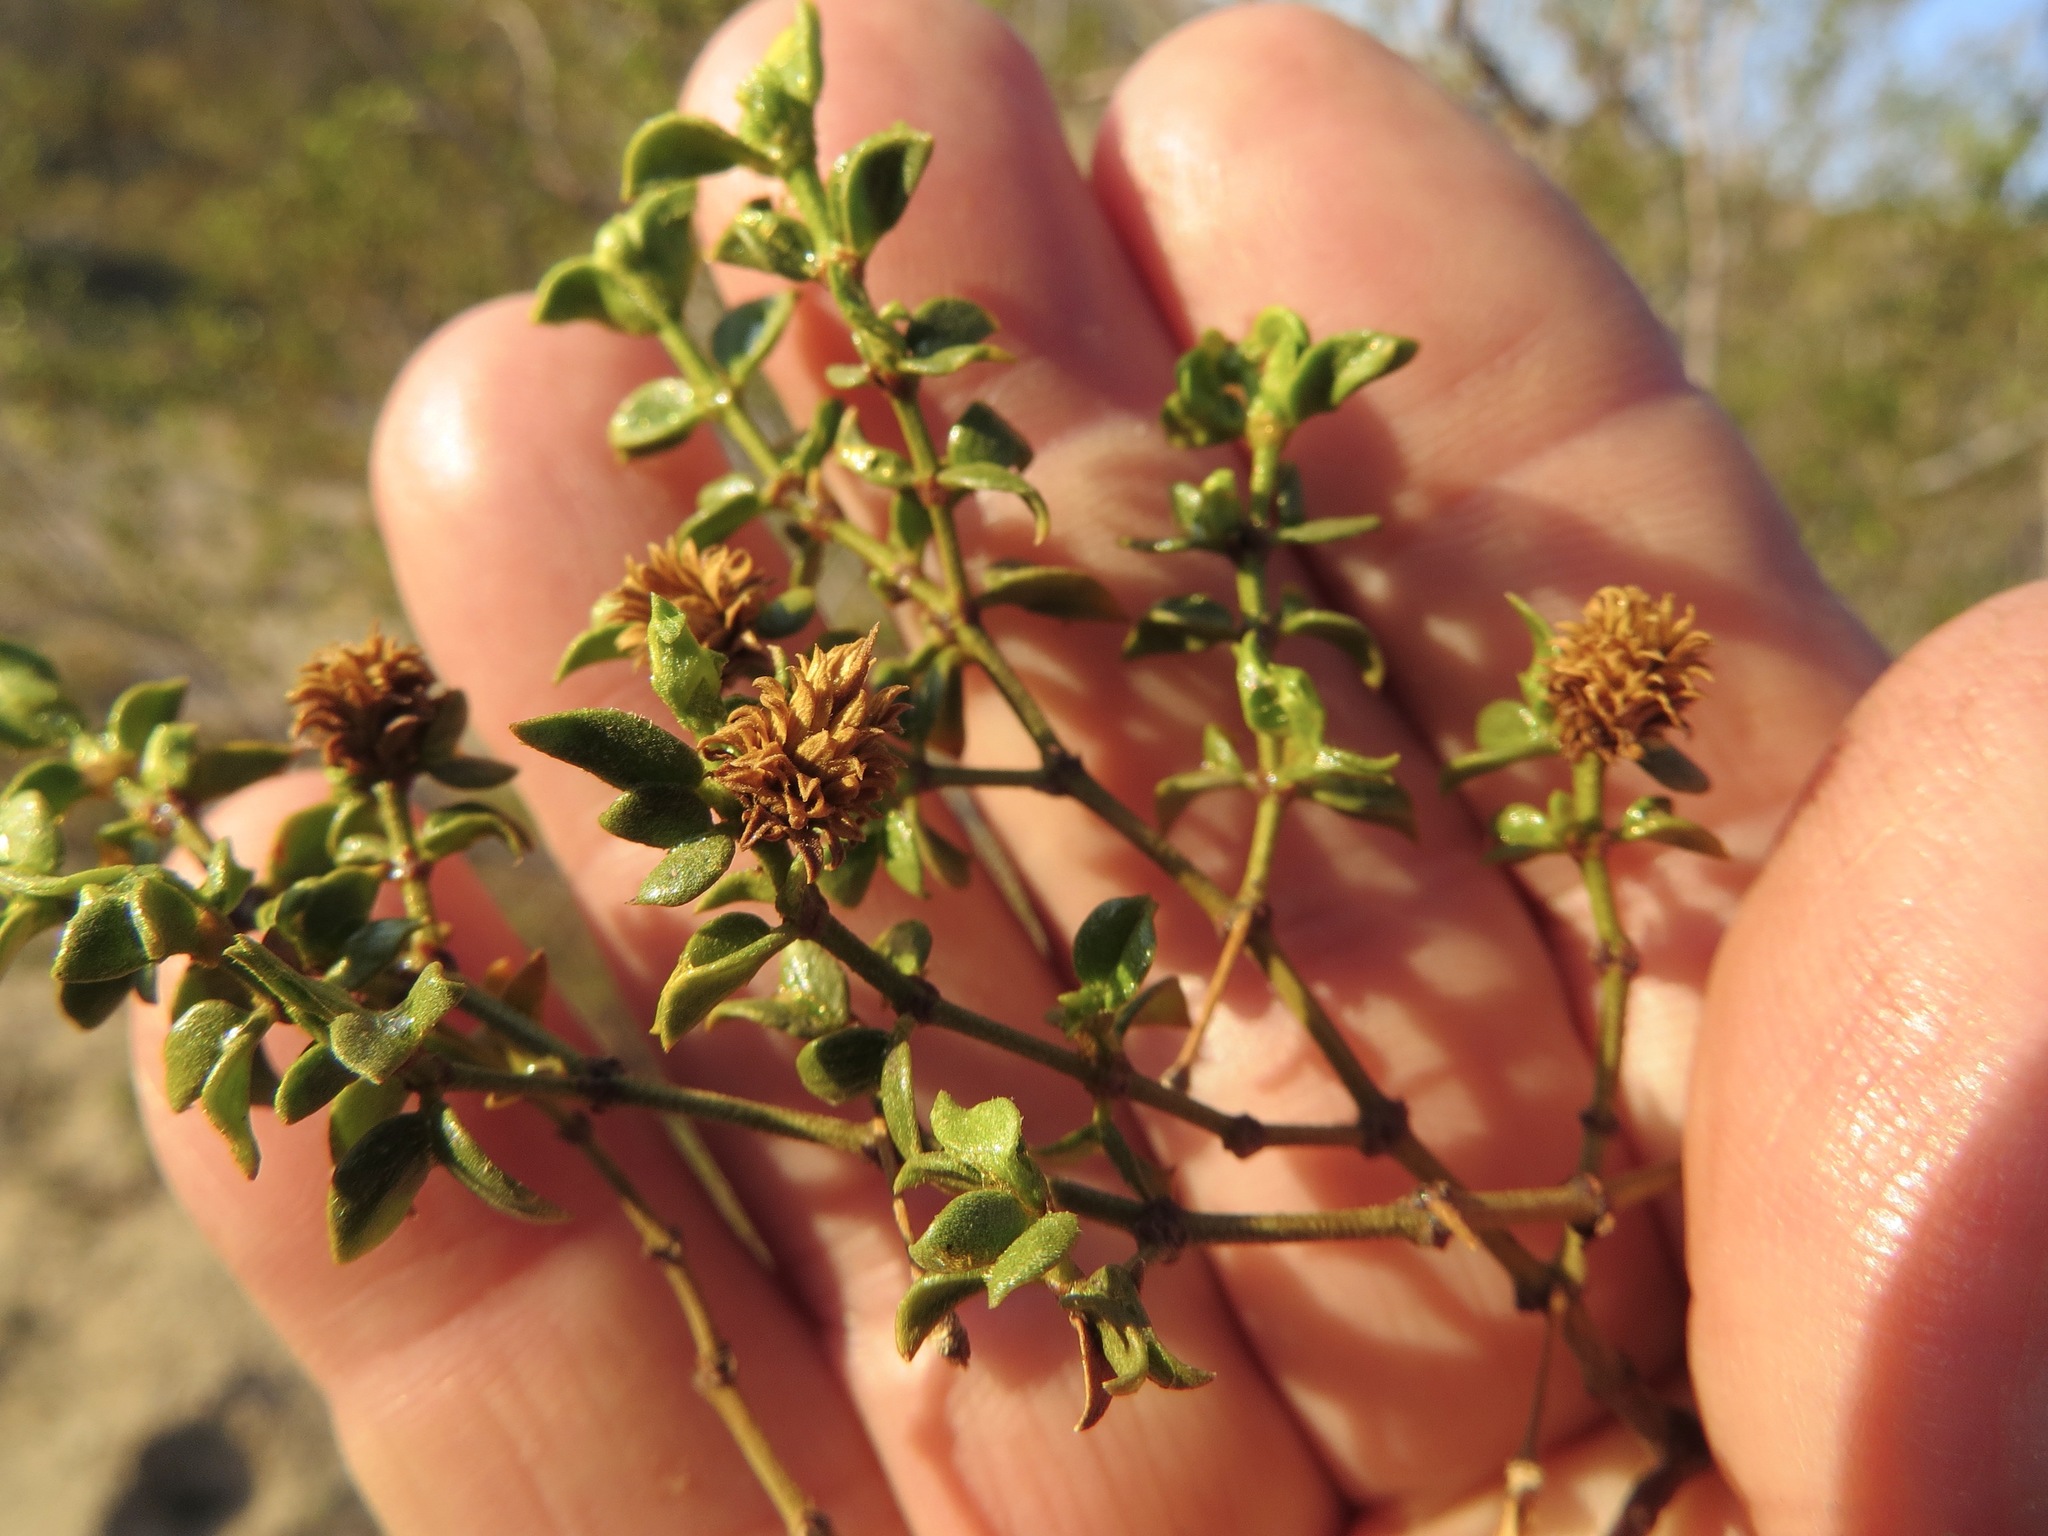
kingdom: Animalia
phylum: Arthropoda
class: Insecta
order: Diptera
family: Cecidomyiidae
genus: Asphondylia
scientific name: Asphondylia rosetta
